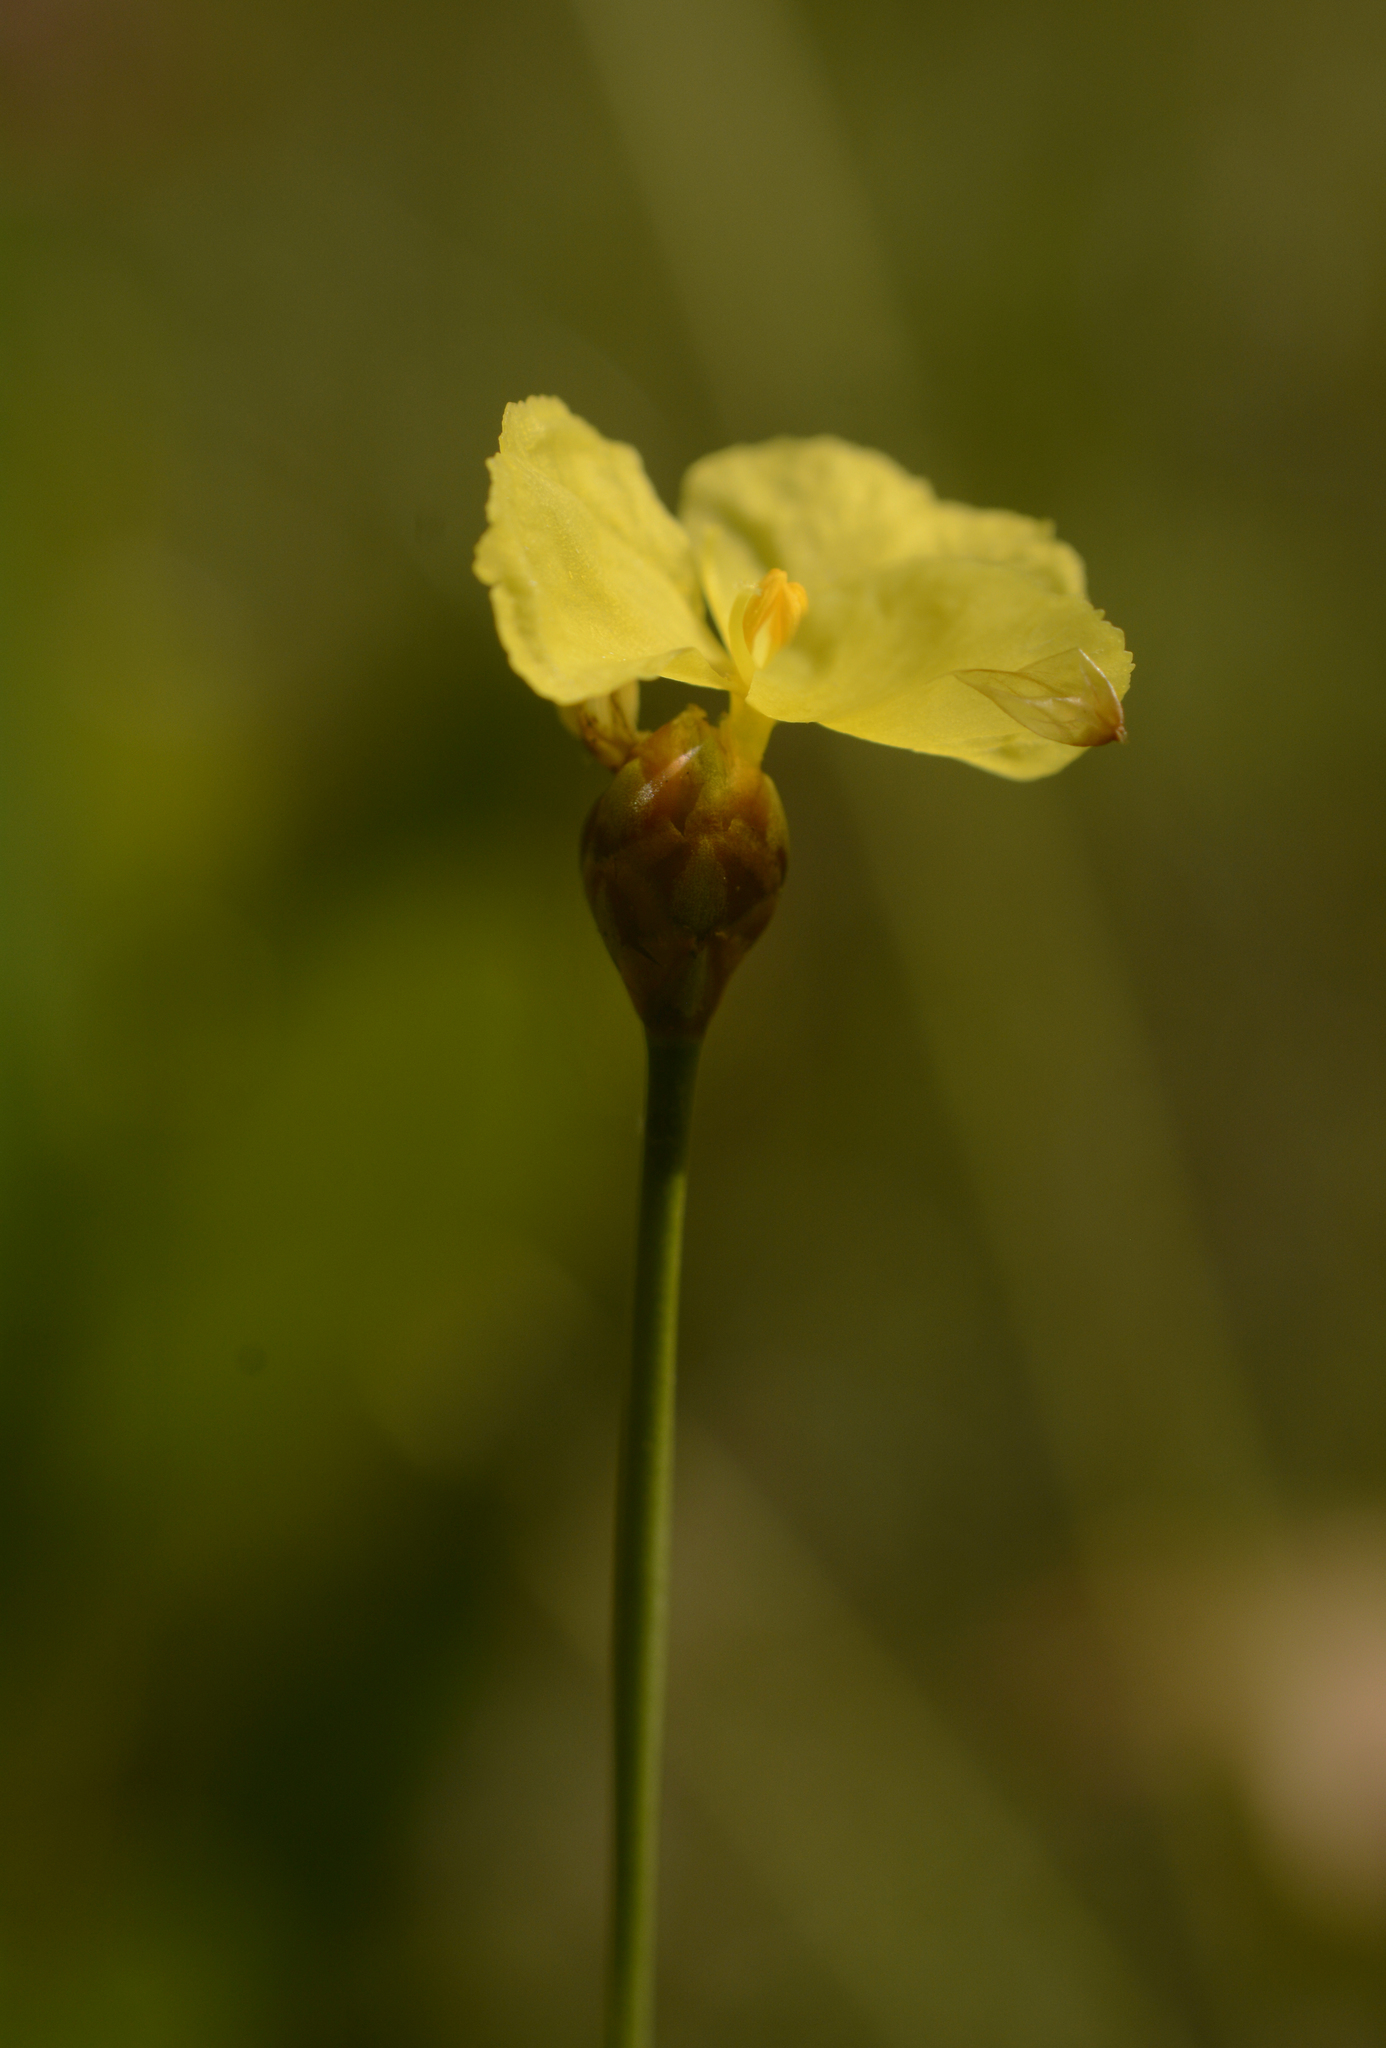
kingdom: Plantae
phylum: Tracheophyta
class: Liliopsida
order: Poales
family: Xyridaceae
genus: Xyris
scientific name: Xyris baldwiniana
